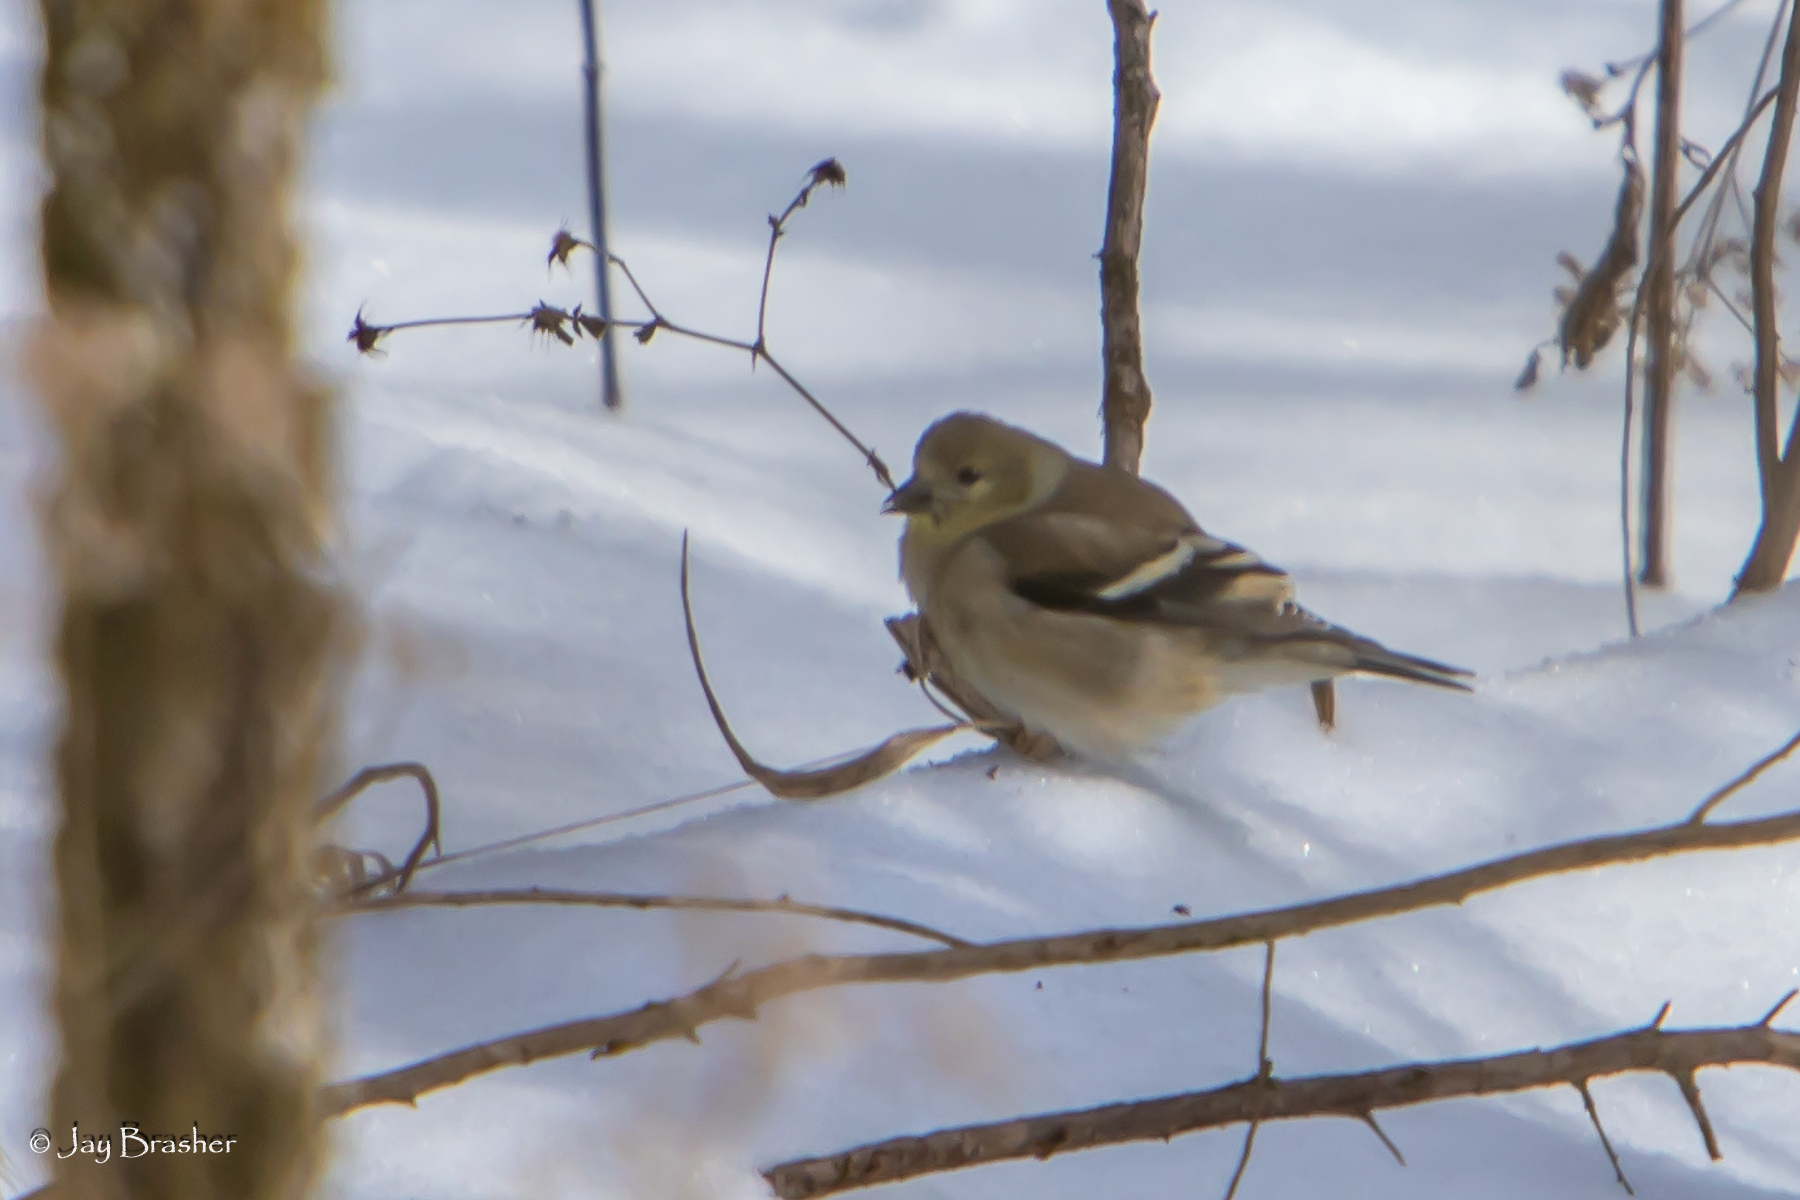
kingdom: Animalia
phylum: Chordata
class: Aves
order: Passeriformes
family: Fringillidae
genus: Spinus
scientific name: Spinus tristis
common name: American goldfinch
